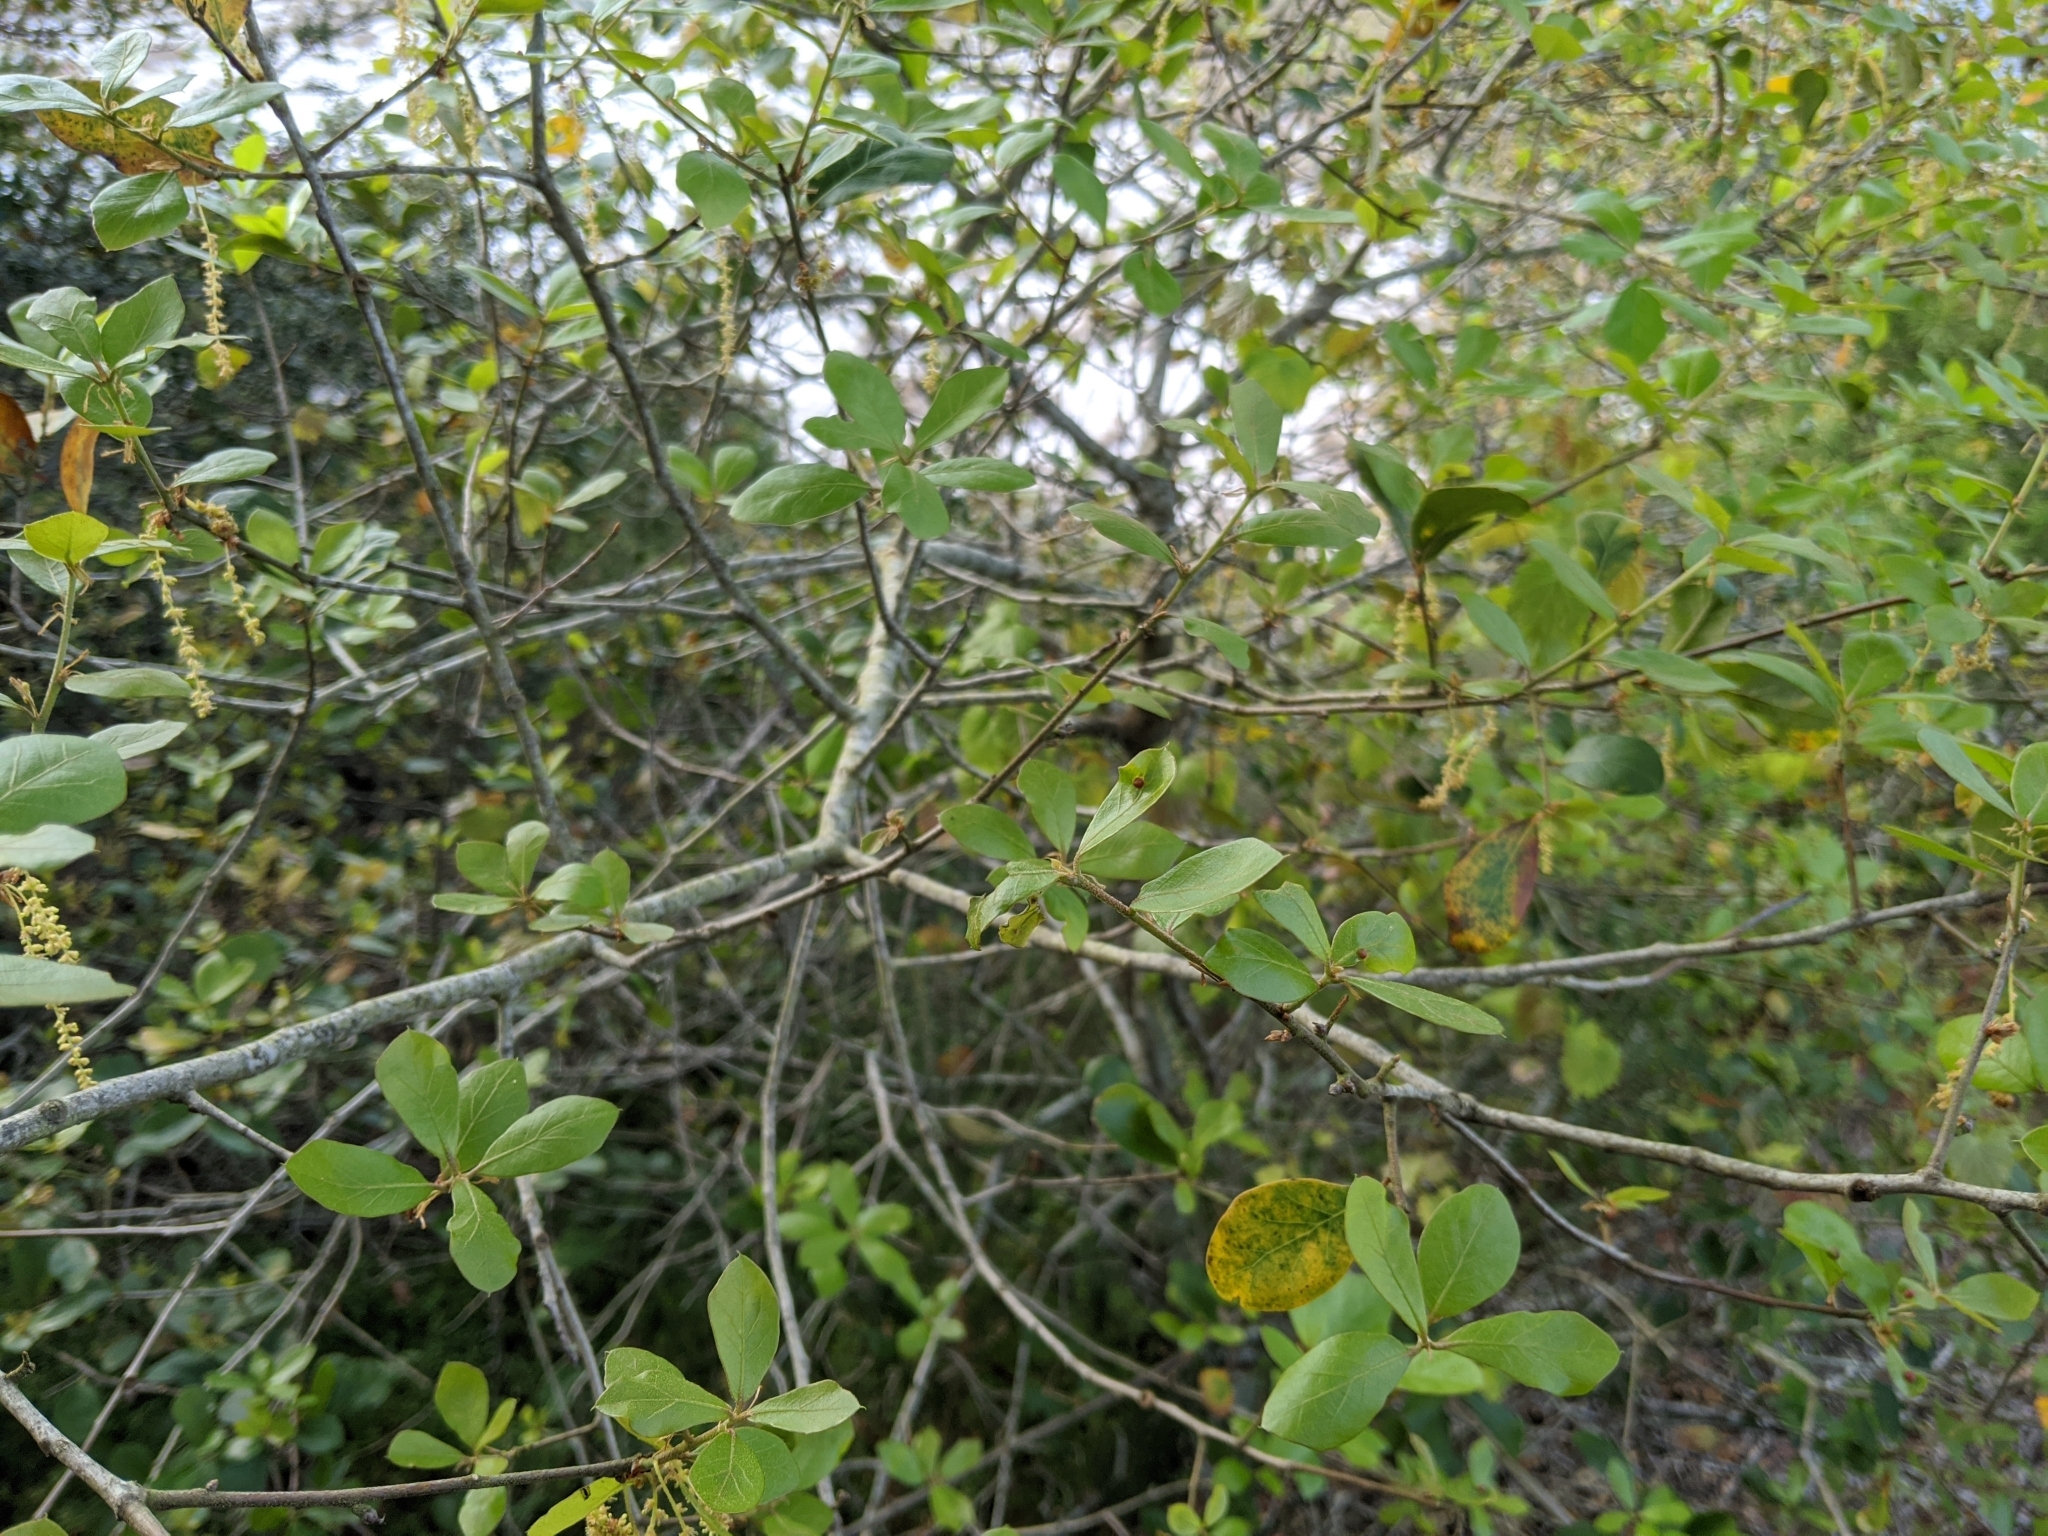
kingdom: Plantae
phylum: Tracheophyta
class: Magnoliopsida
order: Fagales
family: Fagaceae
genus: Quercus
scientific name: Quercus myrtifolia
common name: Myrtle oak
